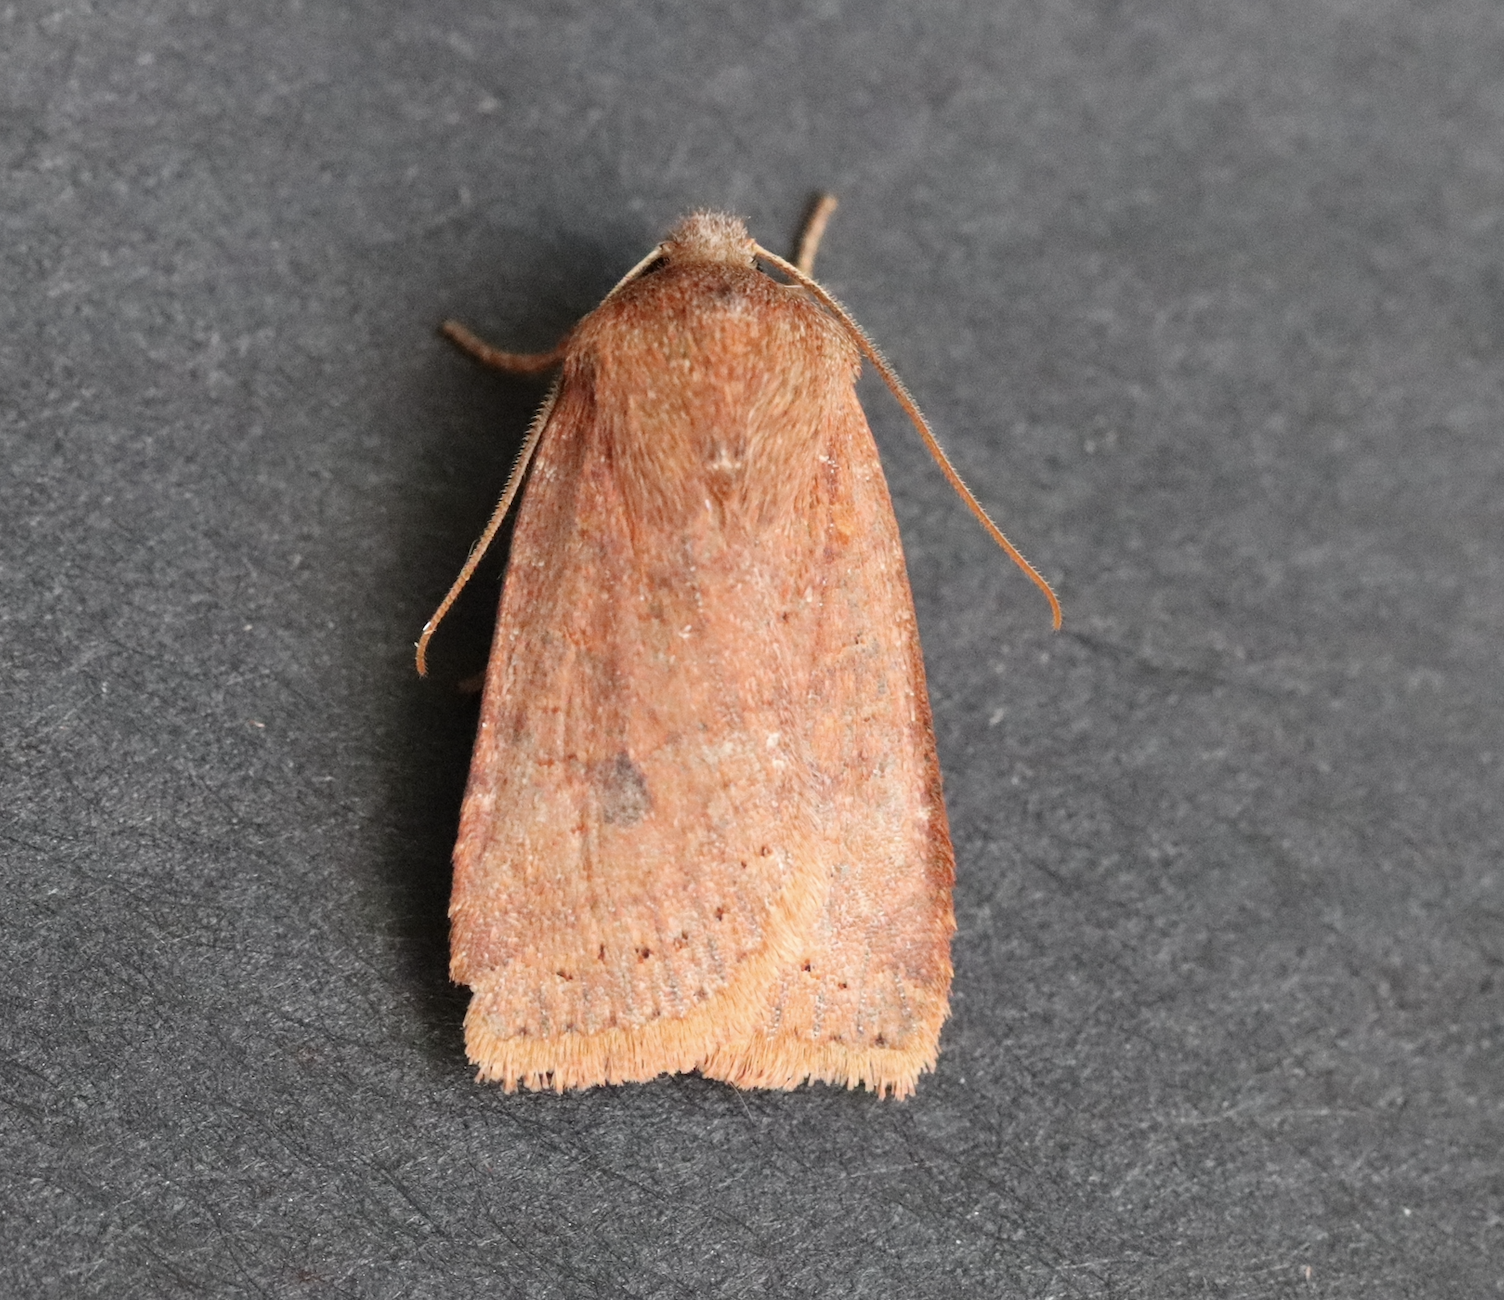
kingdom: Animalia
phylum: Arthropoda
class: Insecta
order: Lepidoptera
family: Noctuidae
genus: Conistra
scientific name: Conistra vaccinii
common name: Chestnut
